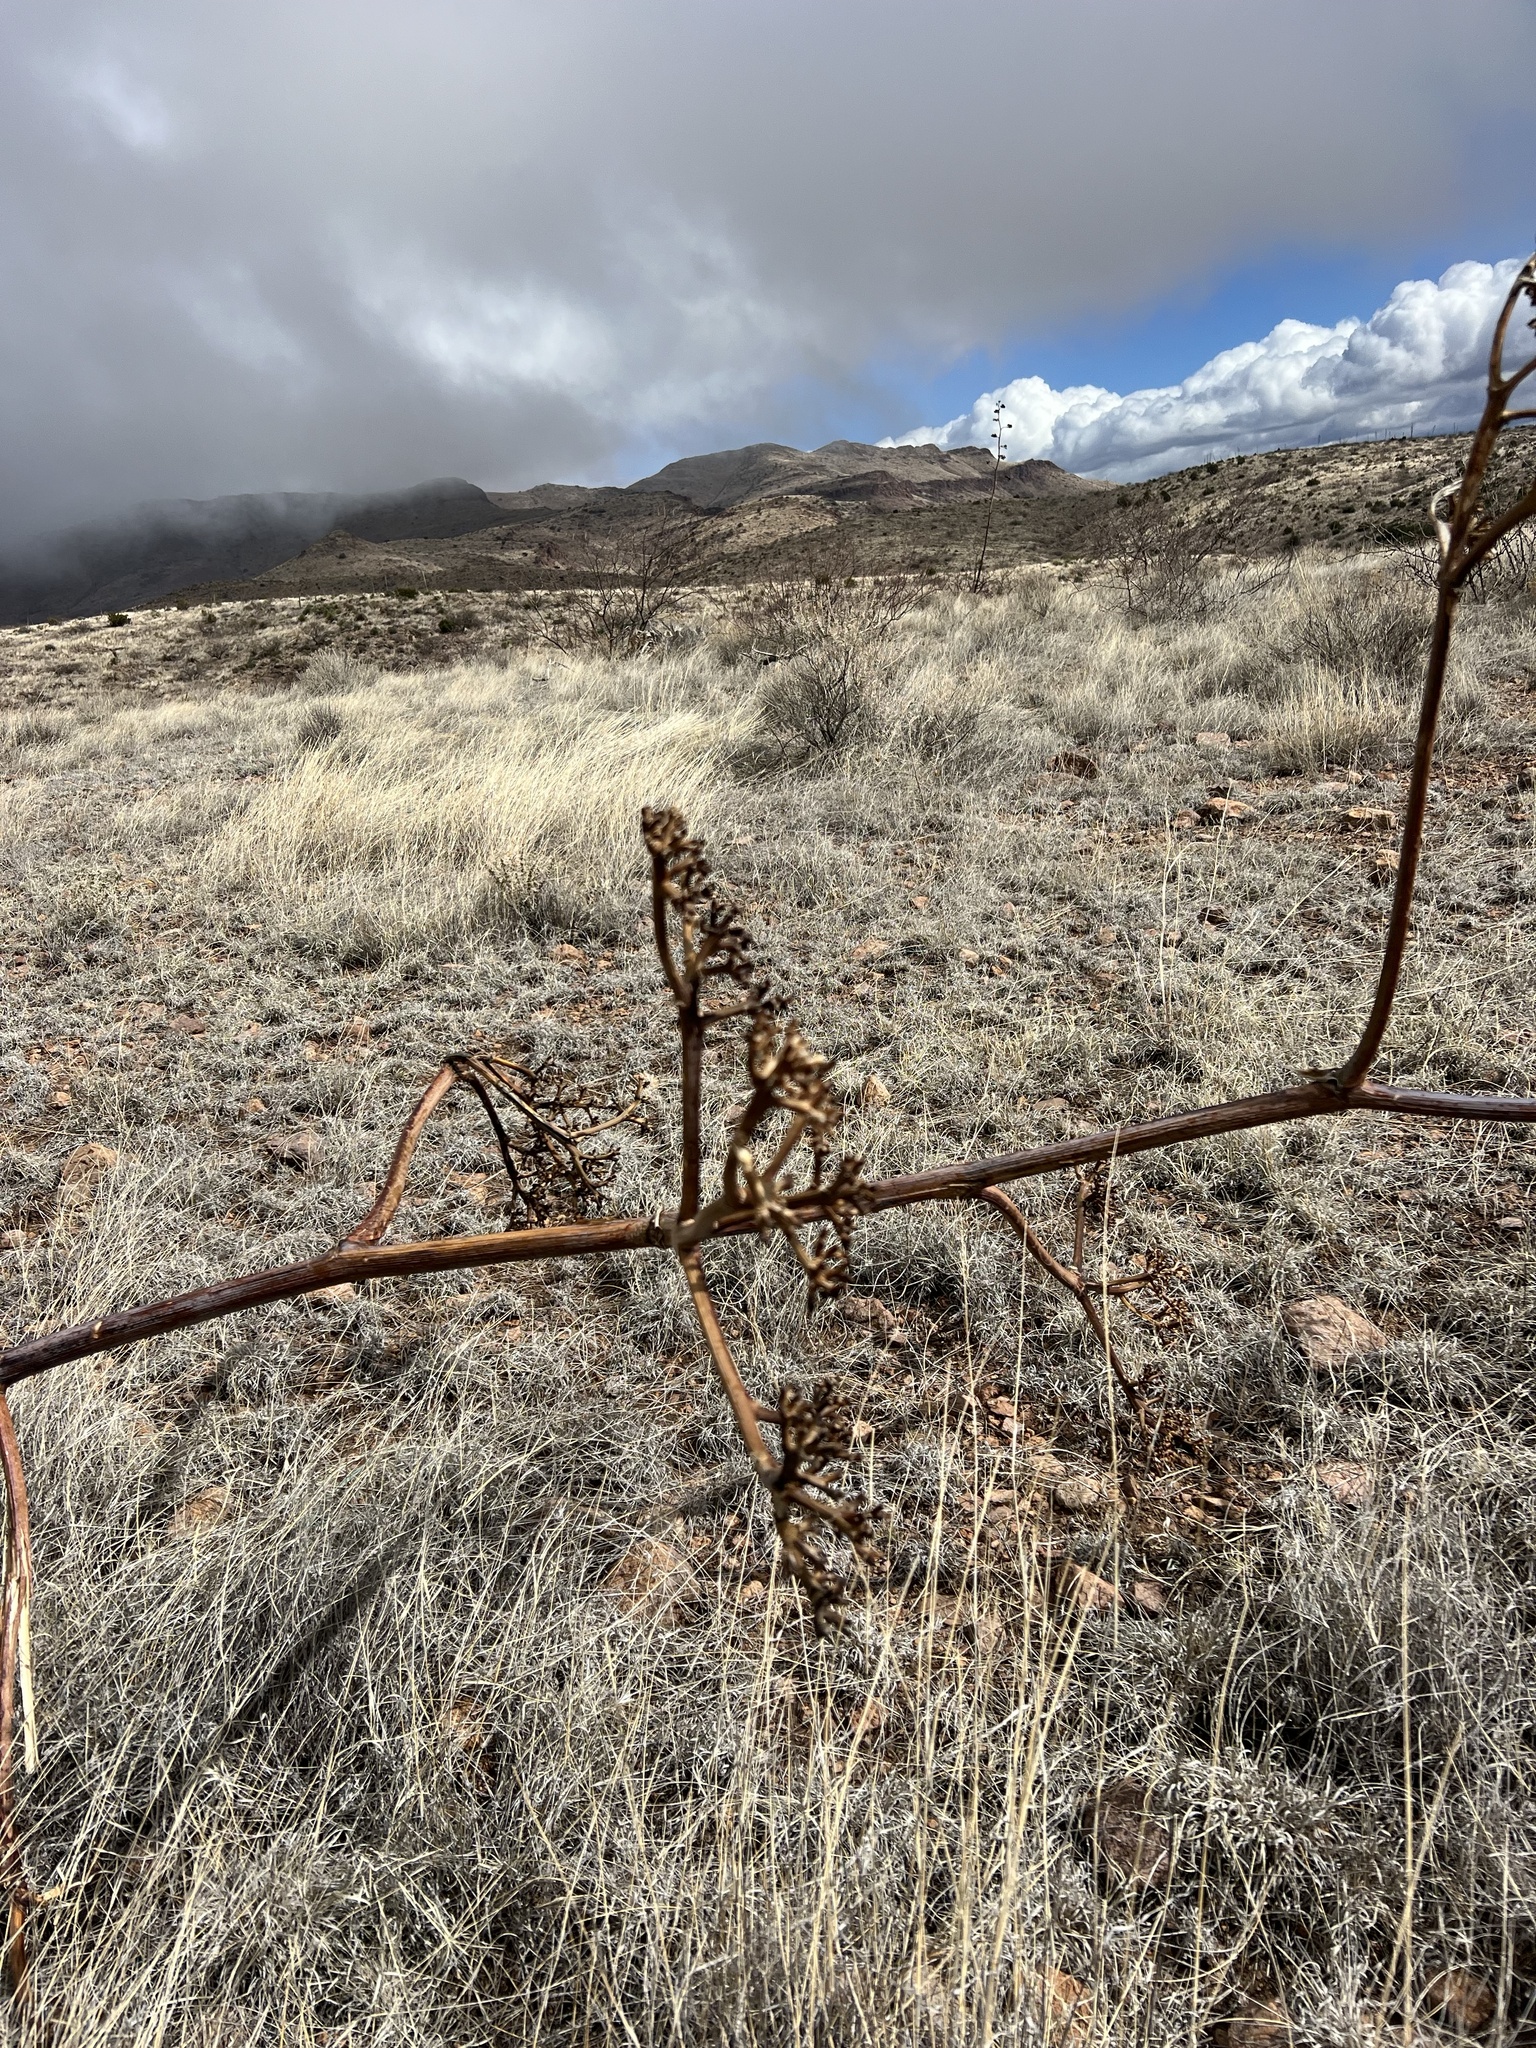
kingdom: Plantae
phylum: Tracheophyta
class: Liliopsida
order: Asparagales
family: Asparagaceae
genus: Agave
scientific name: Agave palmeri
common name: Palmer agave
